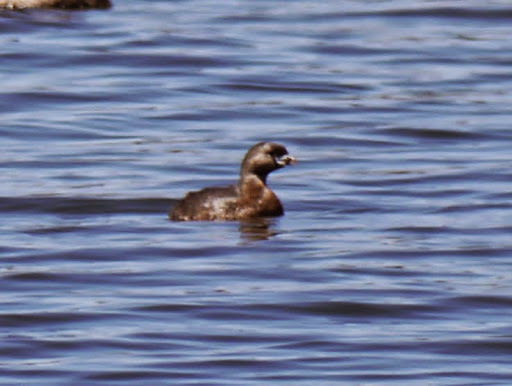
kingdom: Animalia
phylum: Chordata
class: Aves
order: Podicipediformes
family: Podicipedidae
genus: Podilymbus
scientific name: Podilymbus podiceps
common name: Pied-billed grebe
